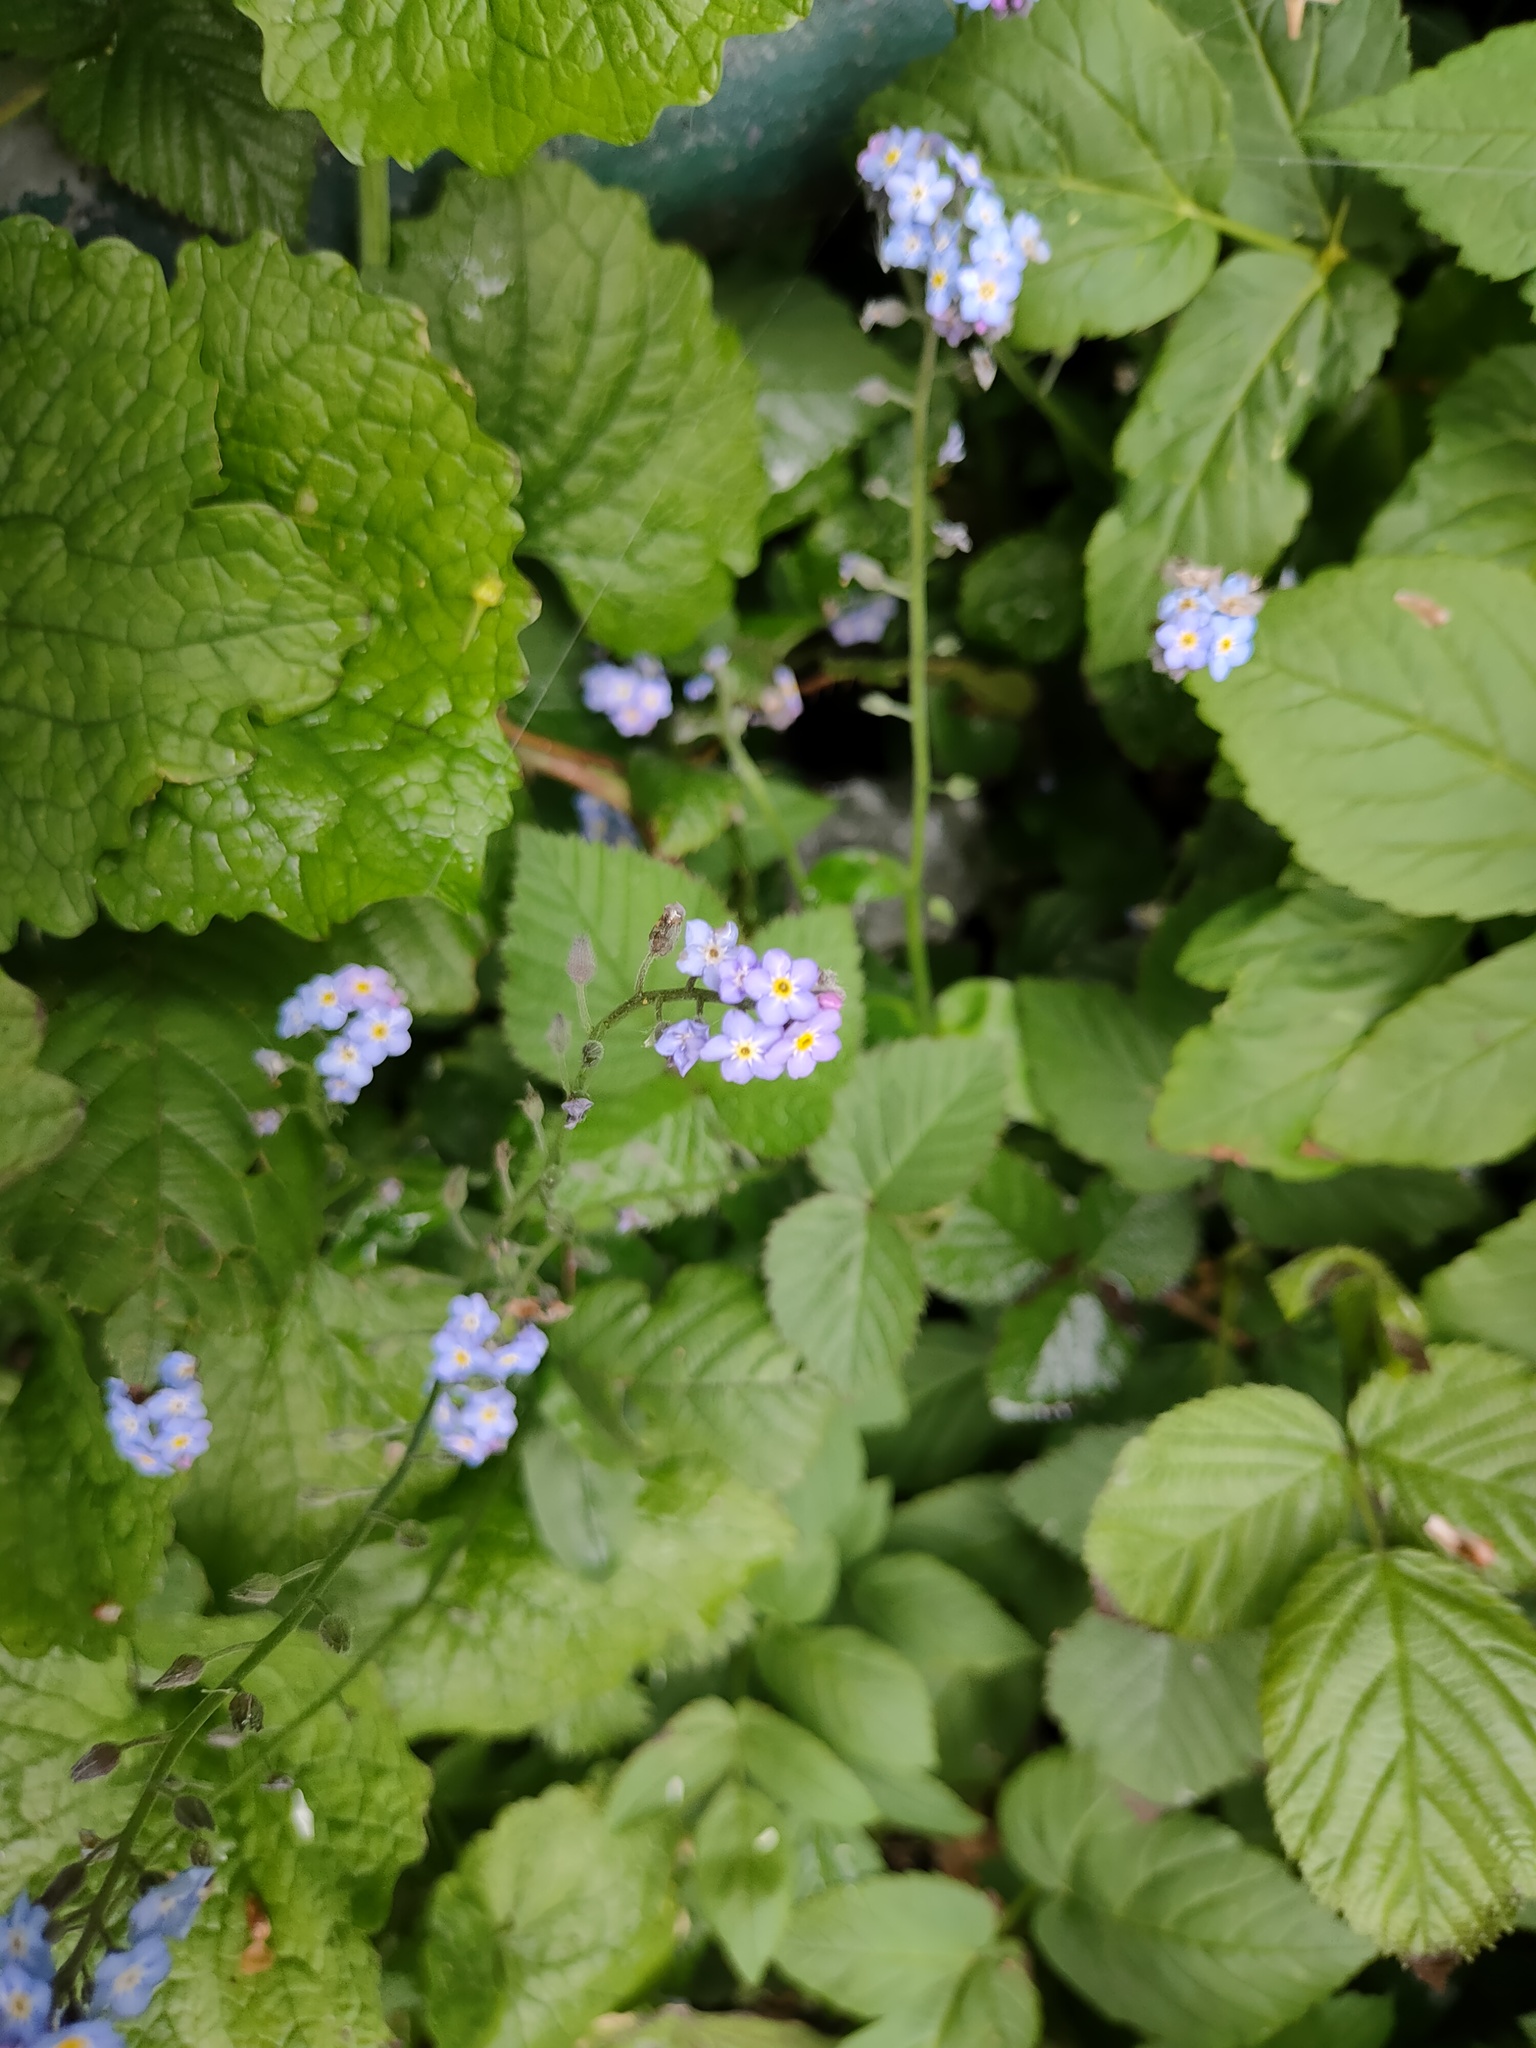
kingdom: Plantae
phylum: Tracheophyta
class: Magnoliopsida
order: Boraginales
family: Boraginaceae
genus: Myosotis
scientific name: Myosotis sylvatica
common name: Wood forget-me-not
